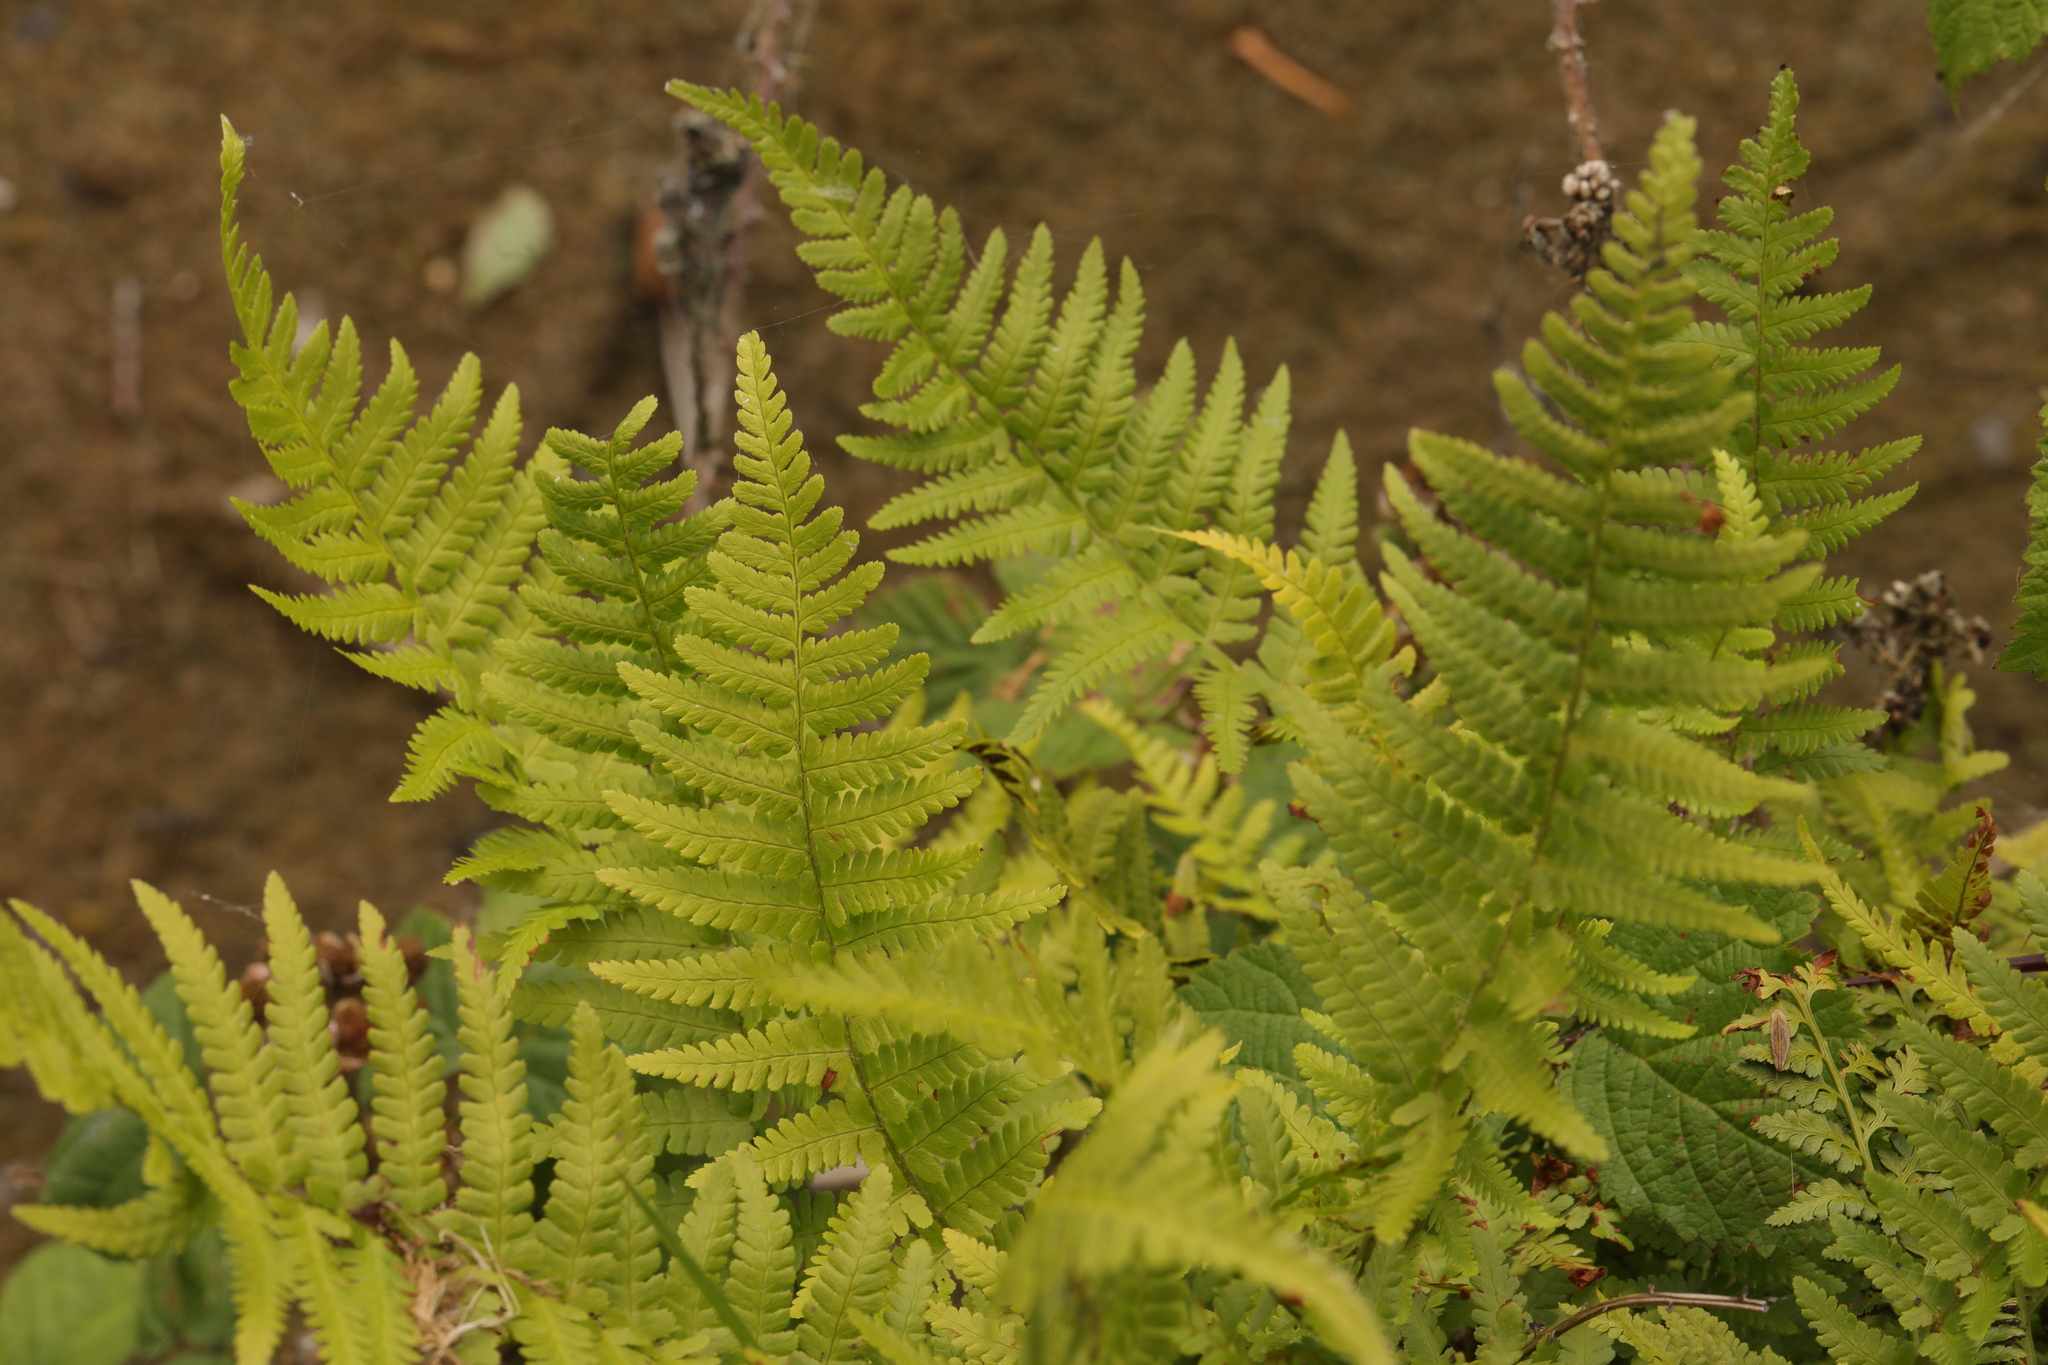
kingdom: Plantae
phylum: Tracheophyta
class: Polypodiopsida
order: Polypodiales
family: Dryopteridaceae
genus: Dryopteris
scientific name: Dryopteris filix-mas
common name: Male fern
